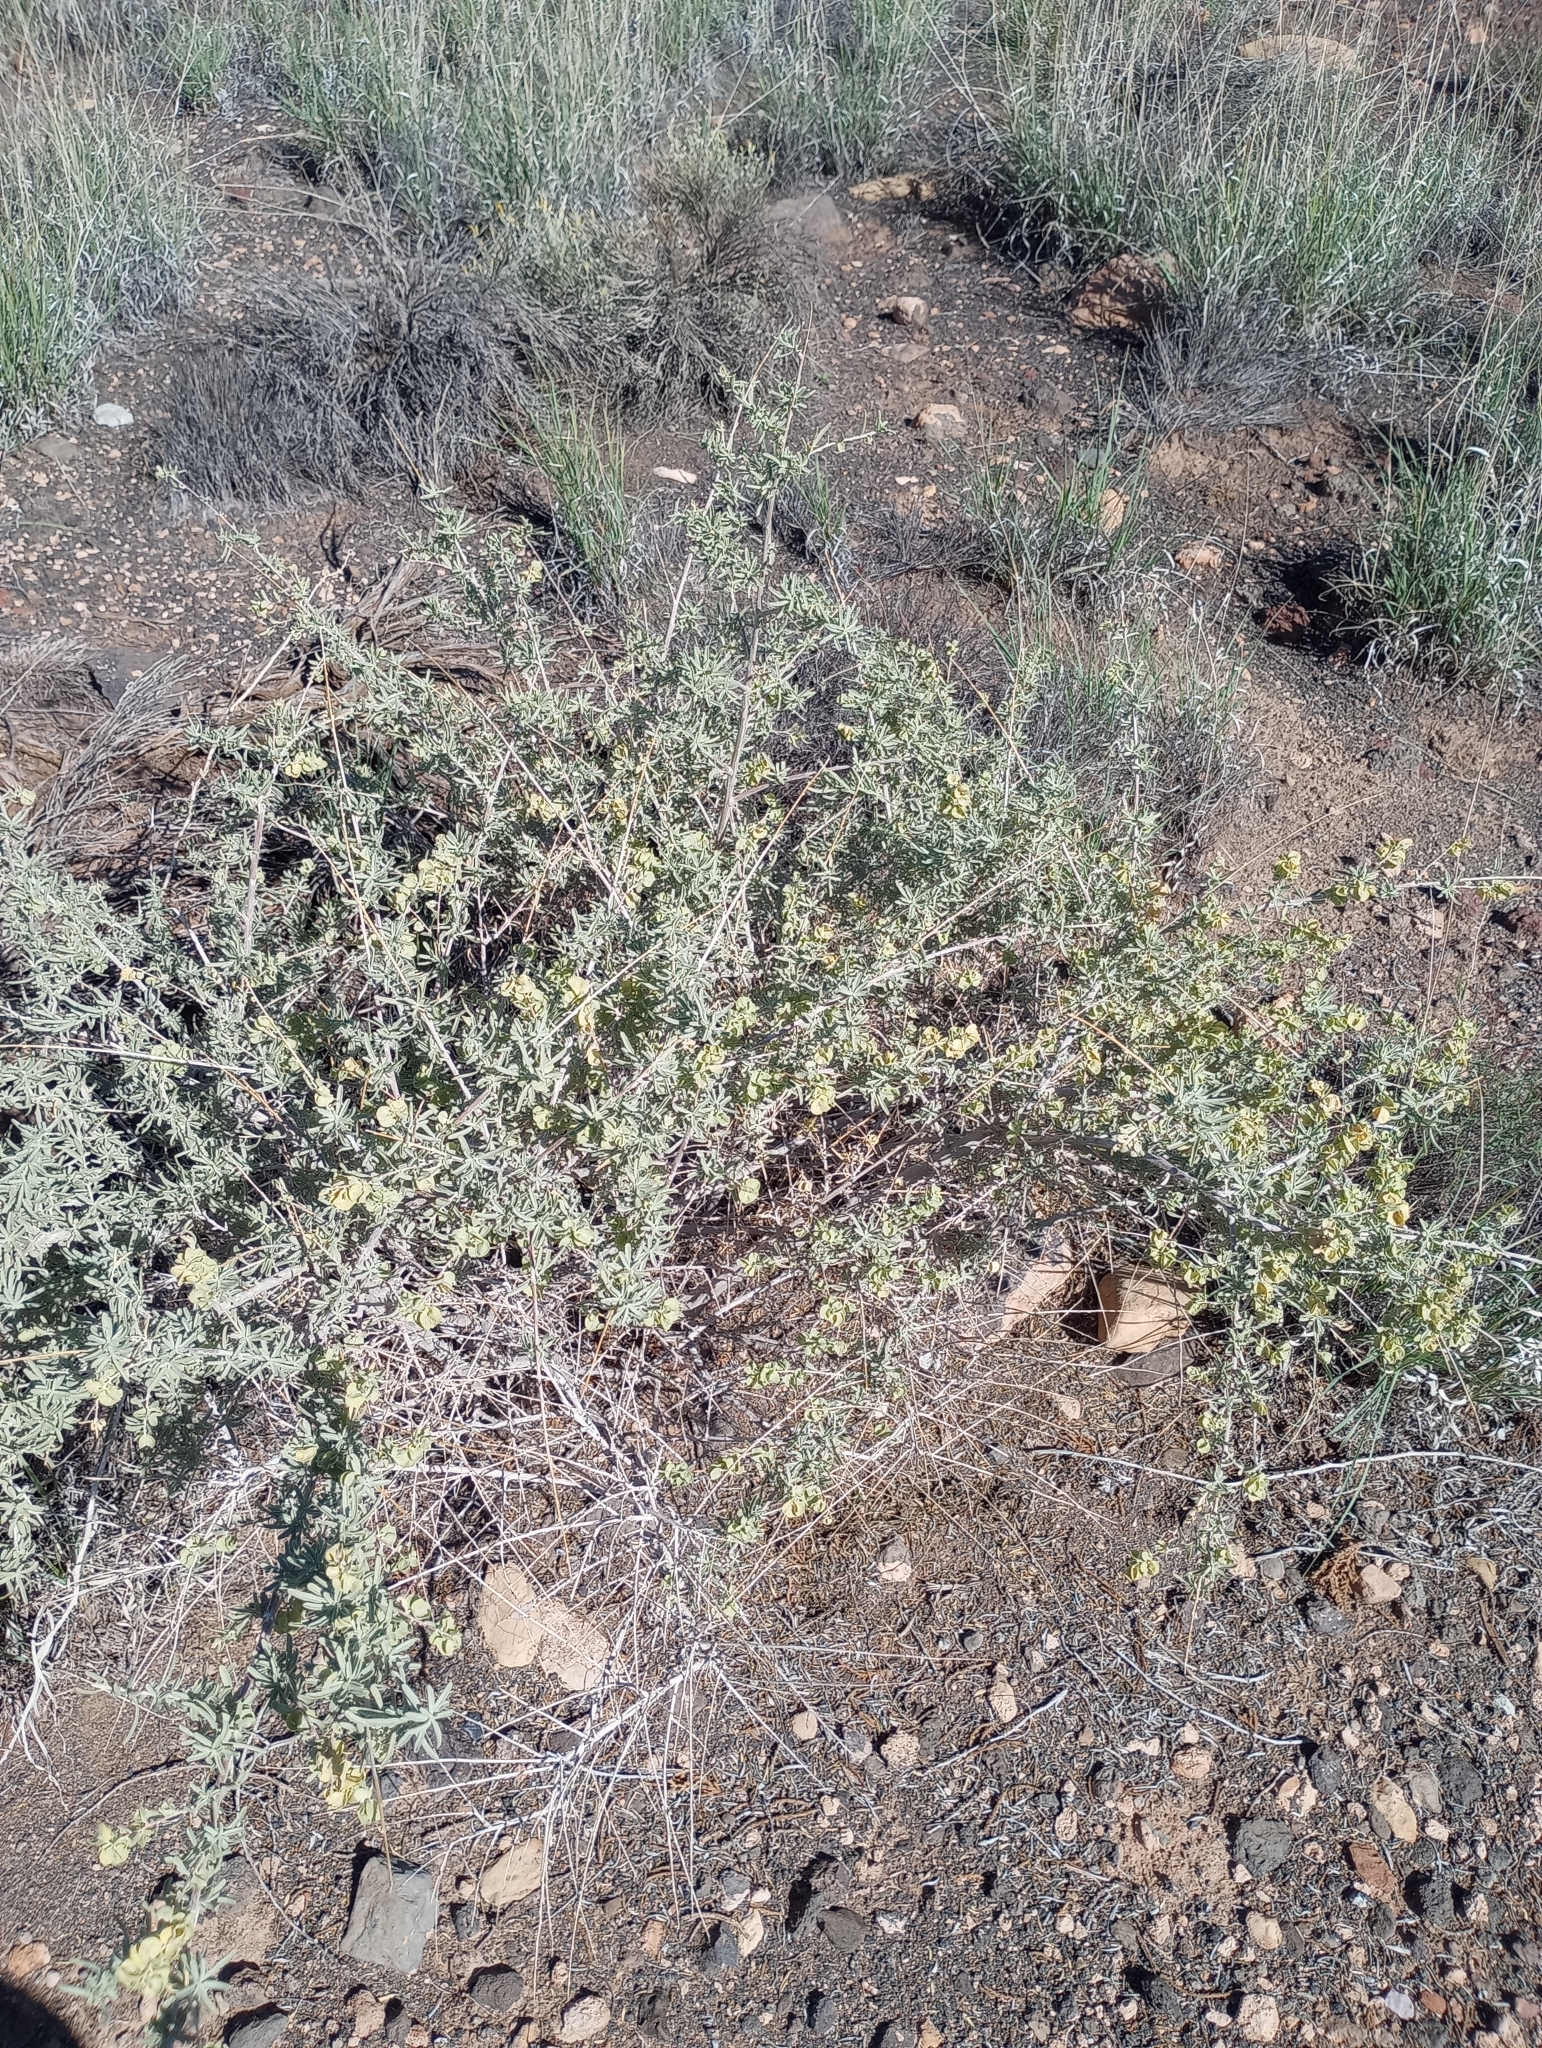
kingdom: Plantae
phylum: Tracheophyta
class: Magnoliopsida
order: Caryophyllales
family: Amaranthaceae
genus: Atriplex
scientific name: Atriplex canescens
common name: Four-wing saltbush
